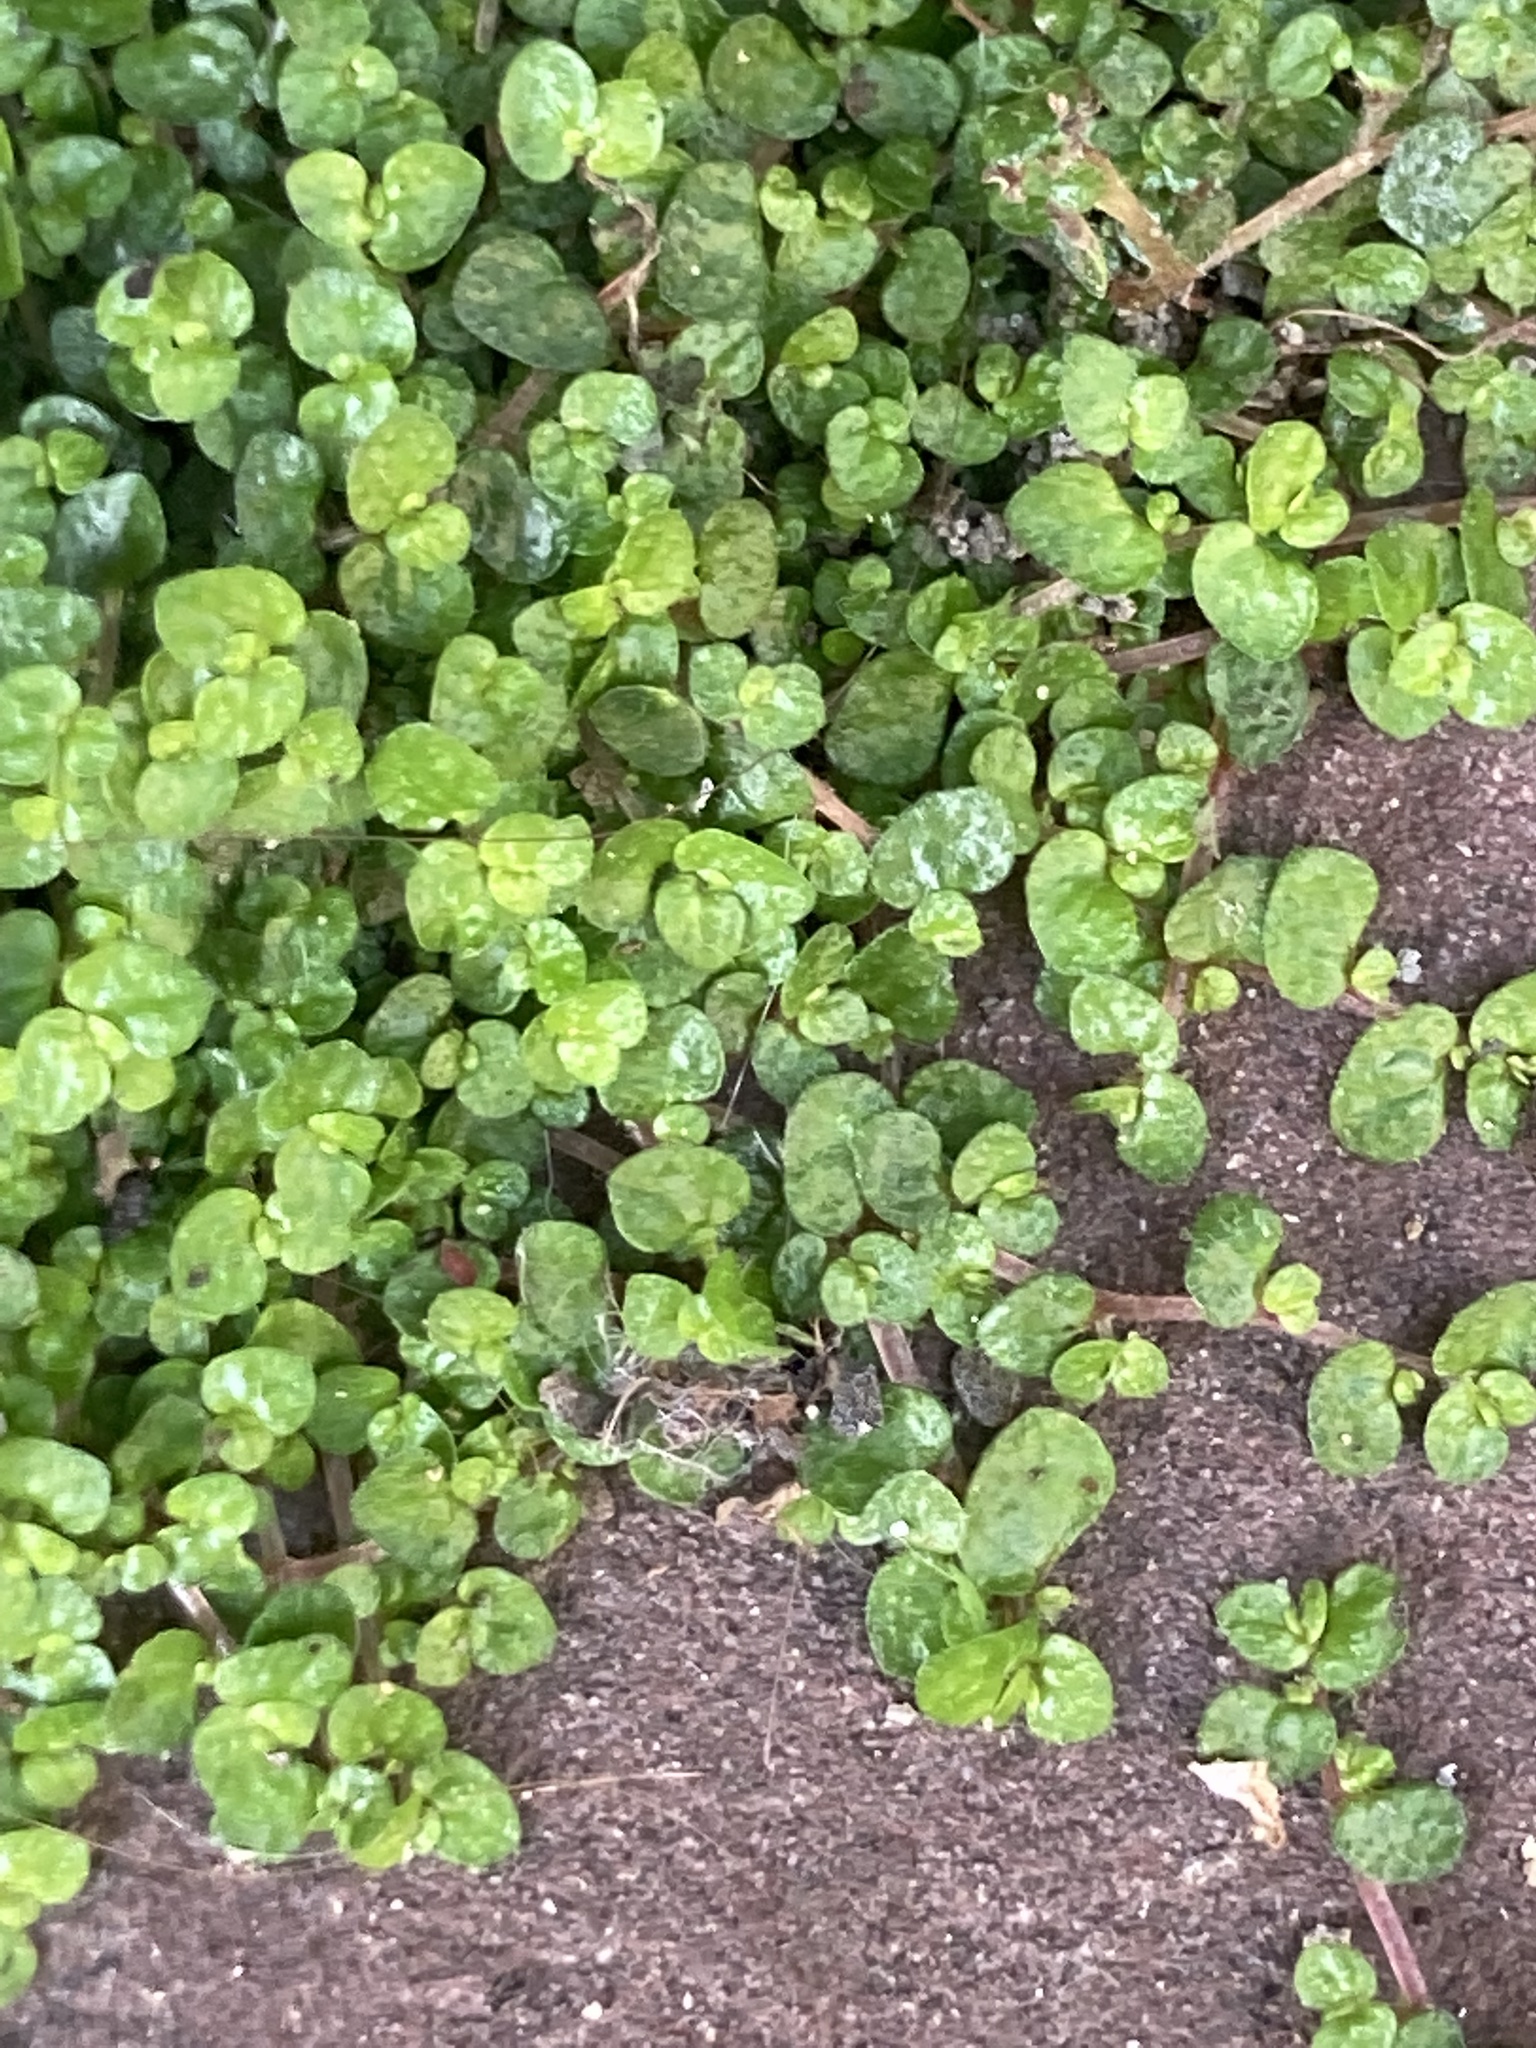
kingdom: Plantae
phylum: Tracheophyta
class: Magnoliopsida
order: Rosales
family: Urticaceae
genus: Soleirolia
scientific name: Soleirolia soleirolii
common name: Mind-your-own-business
